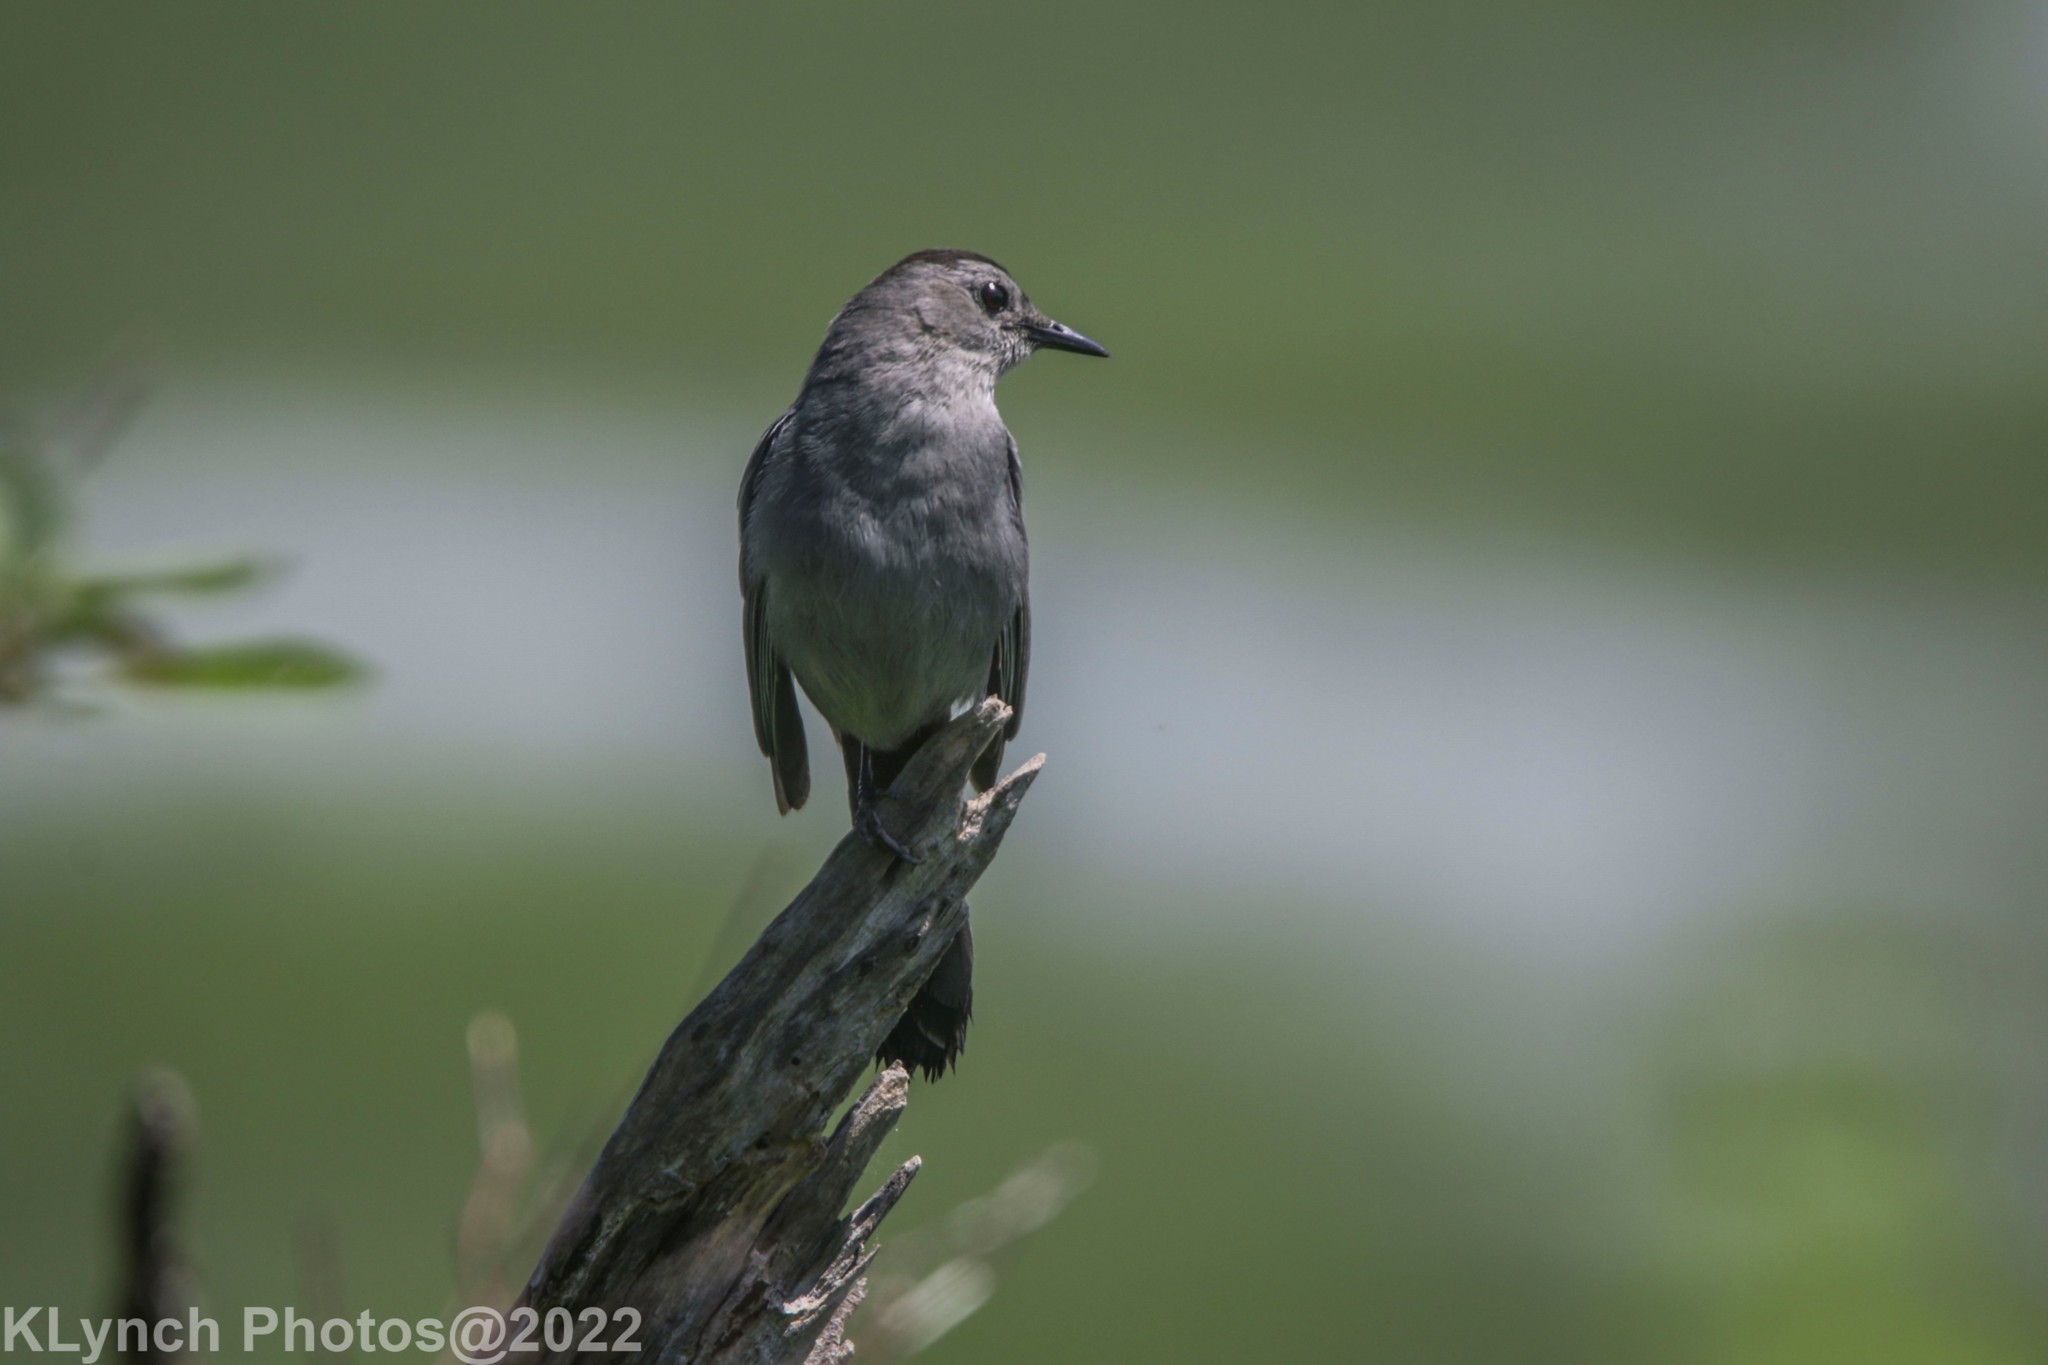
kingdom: Animalia
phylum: Chordata
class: Aves
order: Passeriformes
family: Mimidae
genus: Dumetella
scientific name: Dumetella carolinensis
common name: Gray catbird
